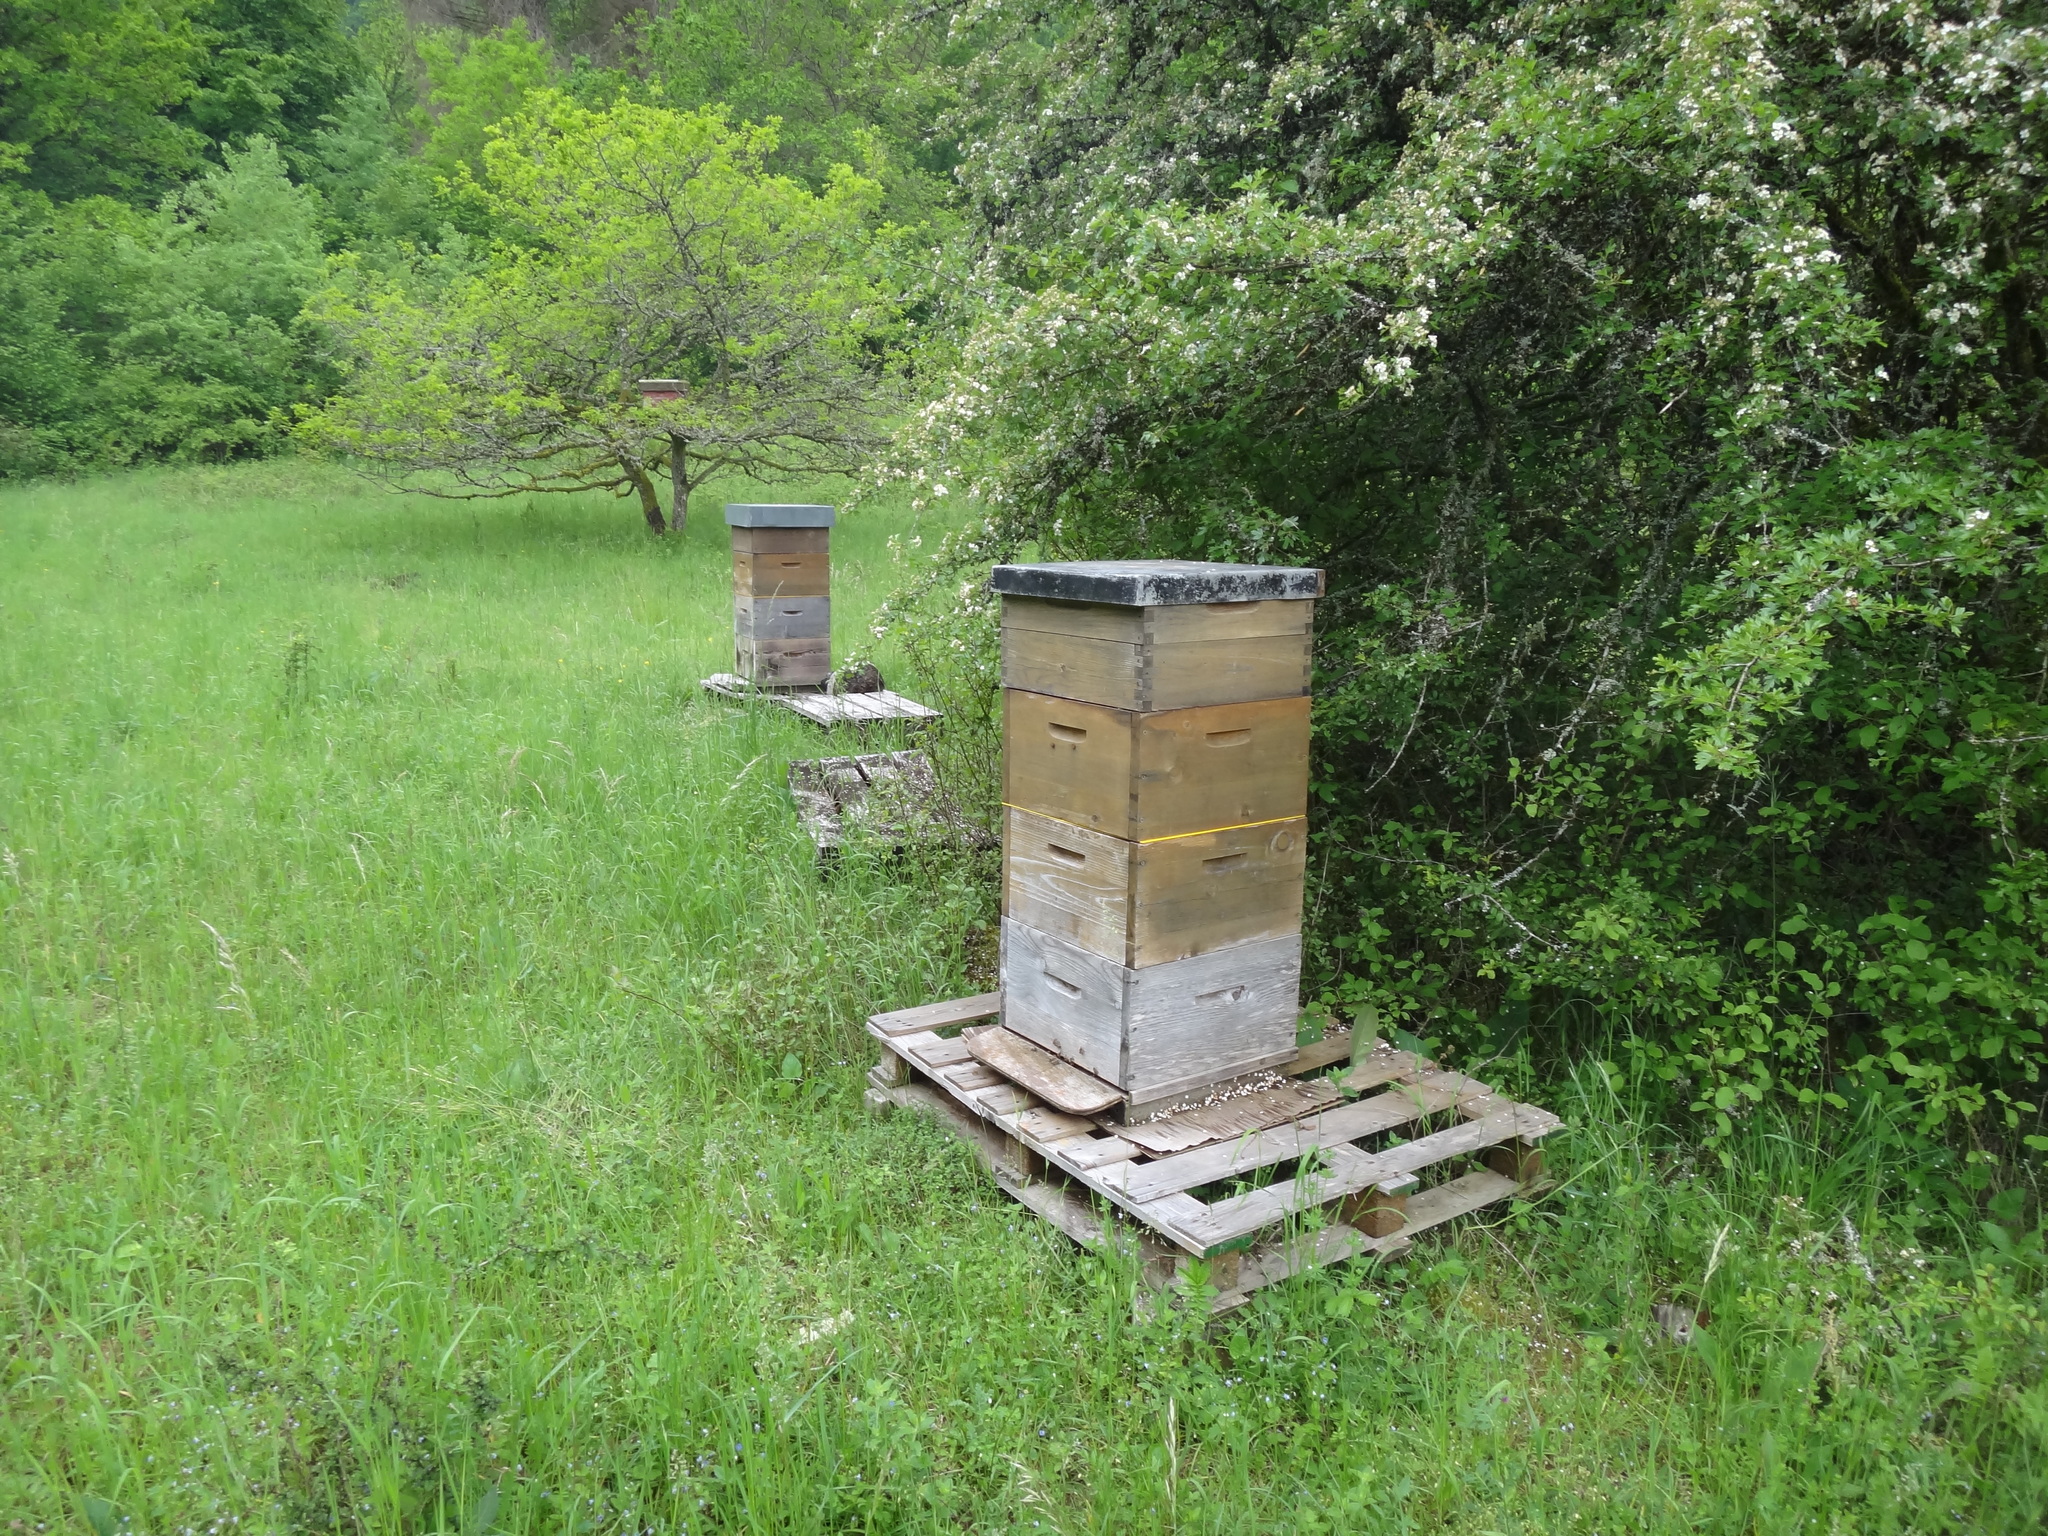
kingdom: Animalia
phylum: Arthropoda
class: Insecta
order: Hymenoptera
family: Apidae
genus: Apis
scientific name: Apis mellifera
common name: Honey bee
